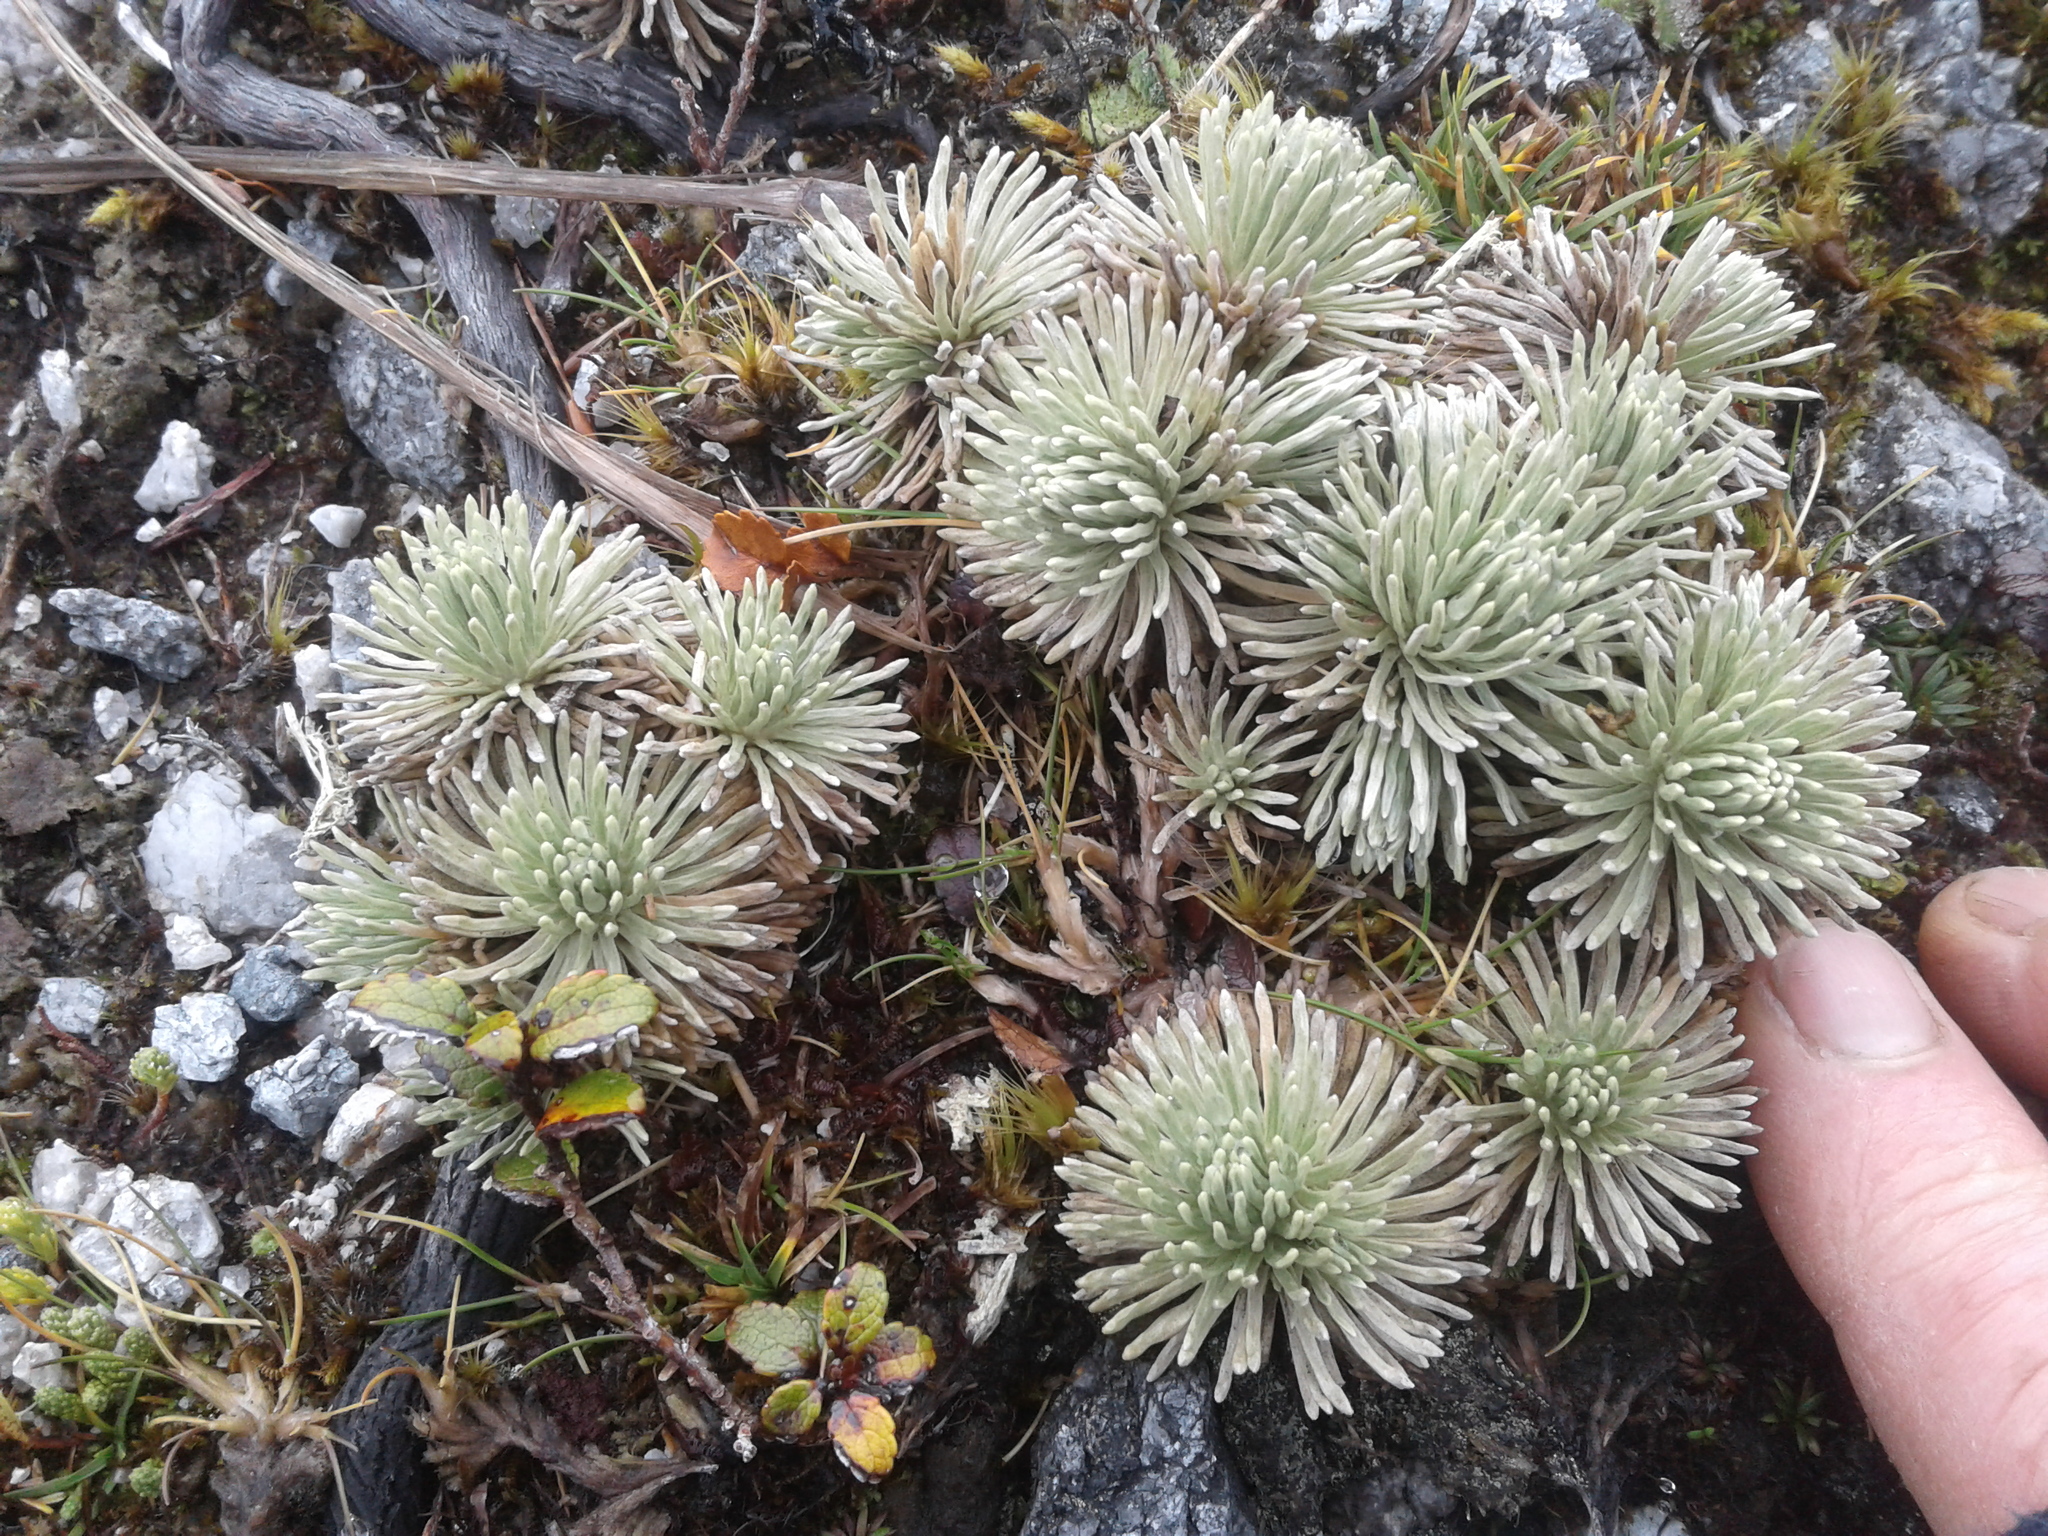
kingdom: Plantae
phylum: Tracheophyta
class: Magnoliopsida
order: Asterales
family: Asteraceae
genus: Celmisia
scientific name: Celmisia sessiliflora
